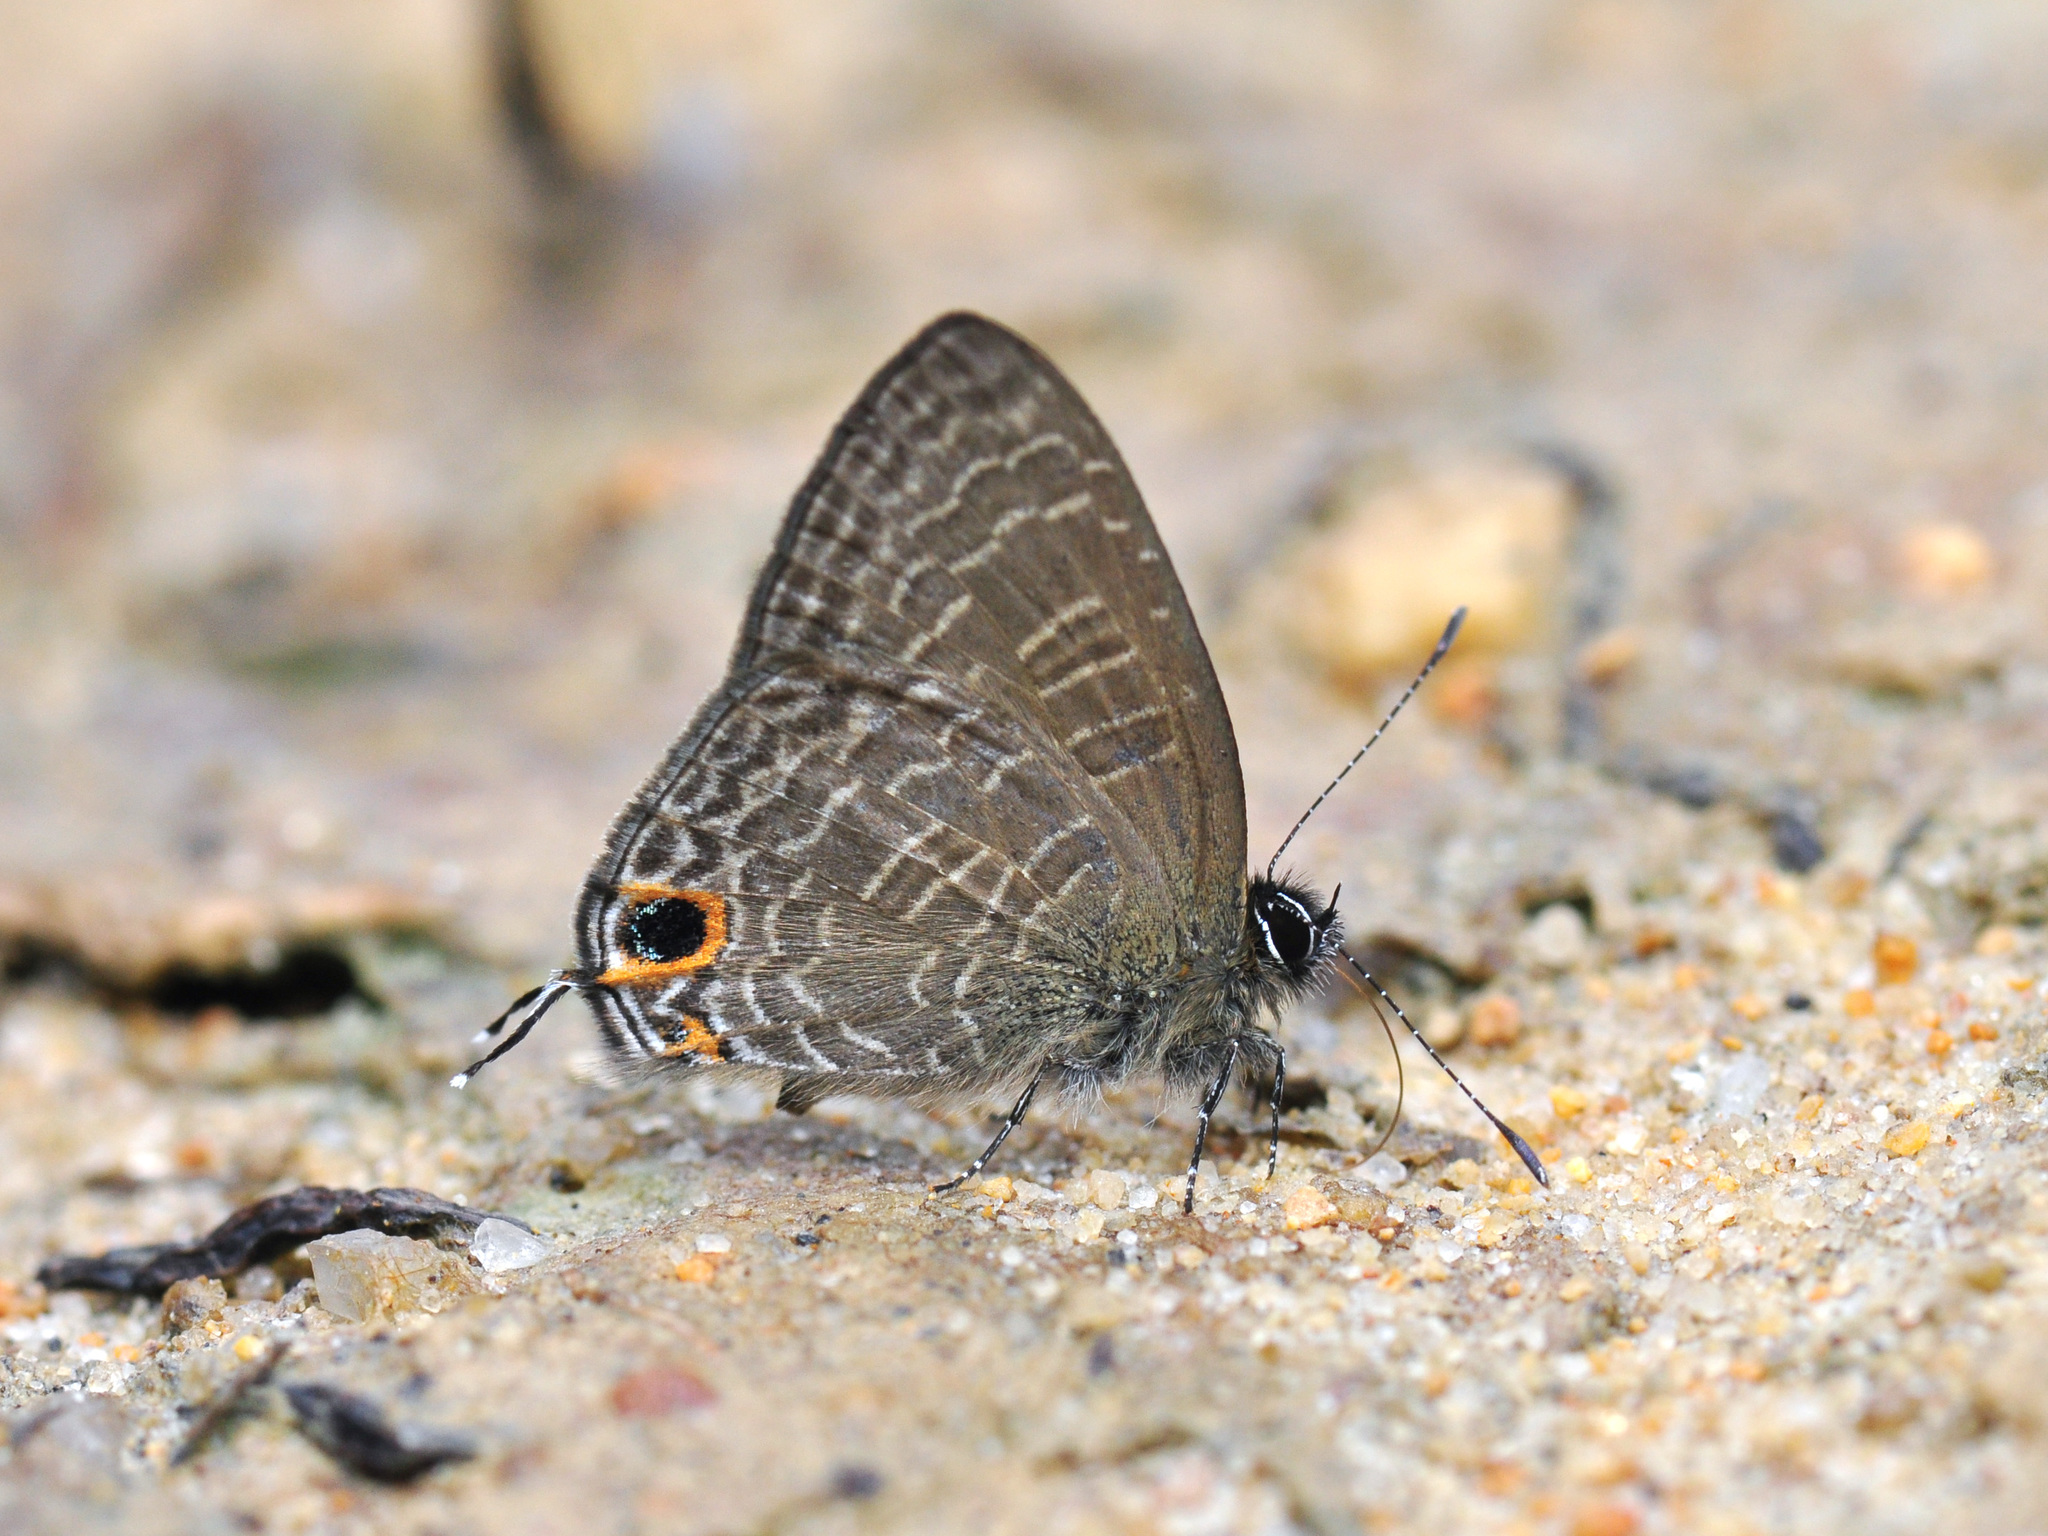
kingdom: Animalia
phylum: Arthropoda
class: Insecta
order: Lepidoptera
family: Lycaenidae
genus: Ionolyce
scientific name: Ionolyce helicon
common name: Pointed line blue
